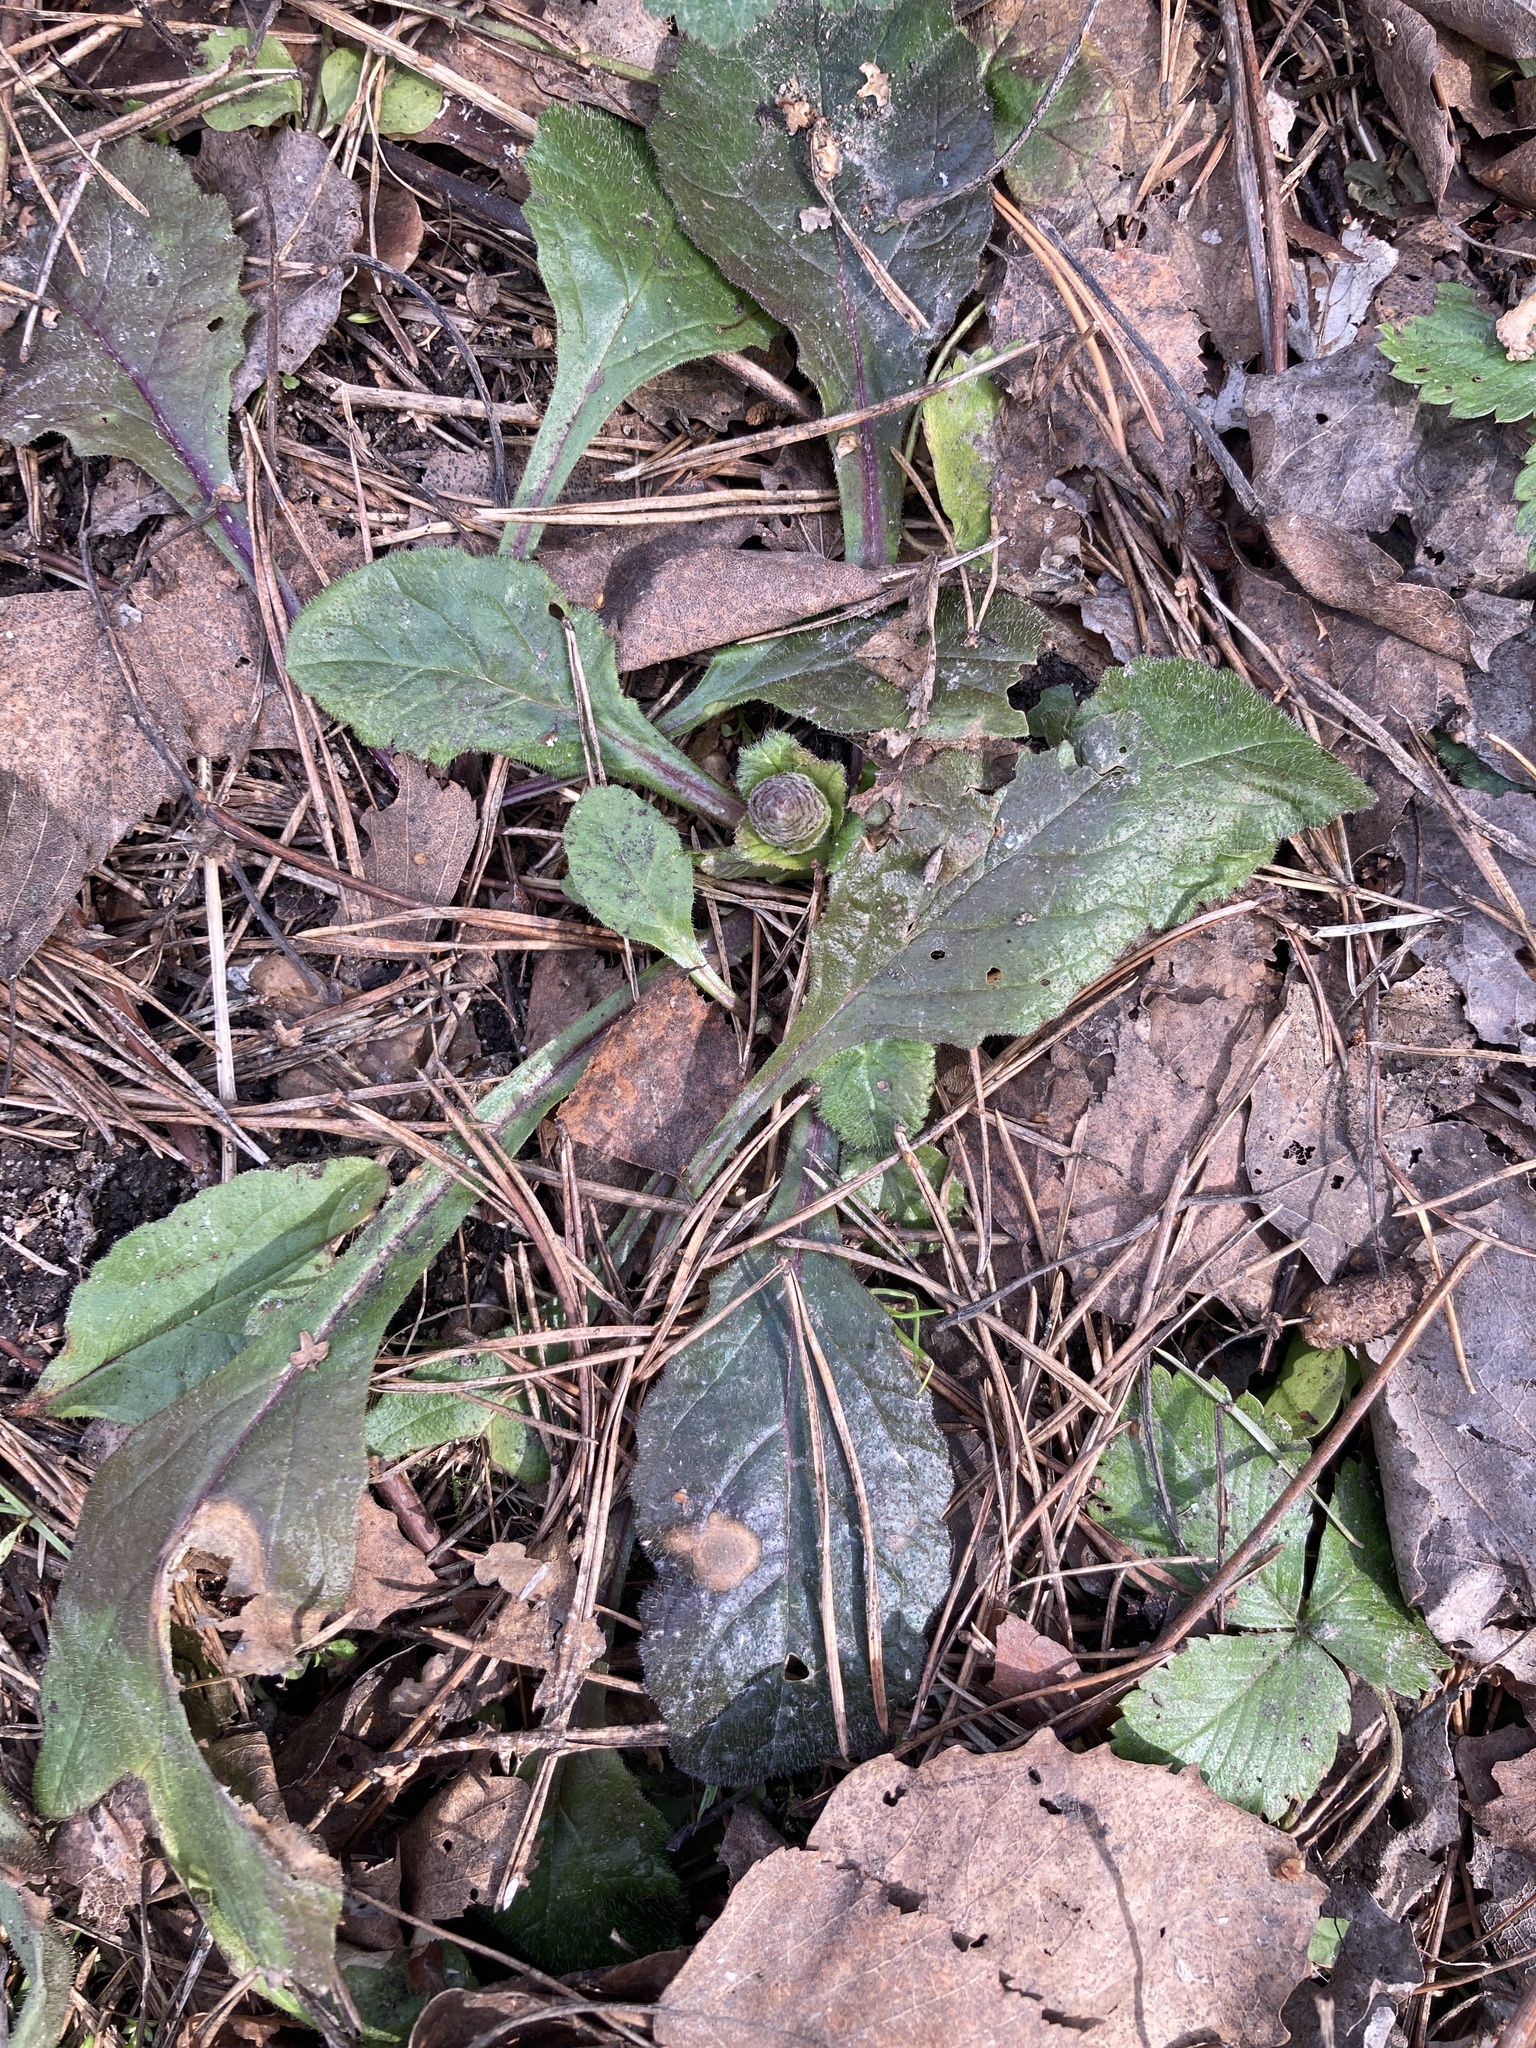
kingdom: Plantae
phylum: Tracheophyta
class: Magnoliopsida
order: Lamiales
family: Lamiaceae
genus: Ajuga
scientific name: Ajuga reptans
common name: Bugle
